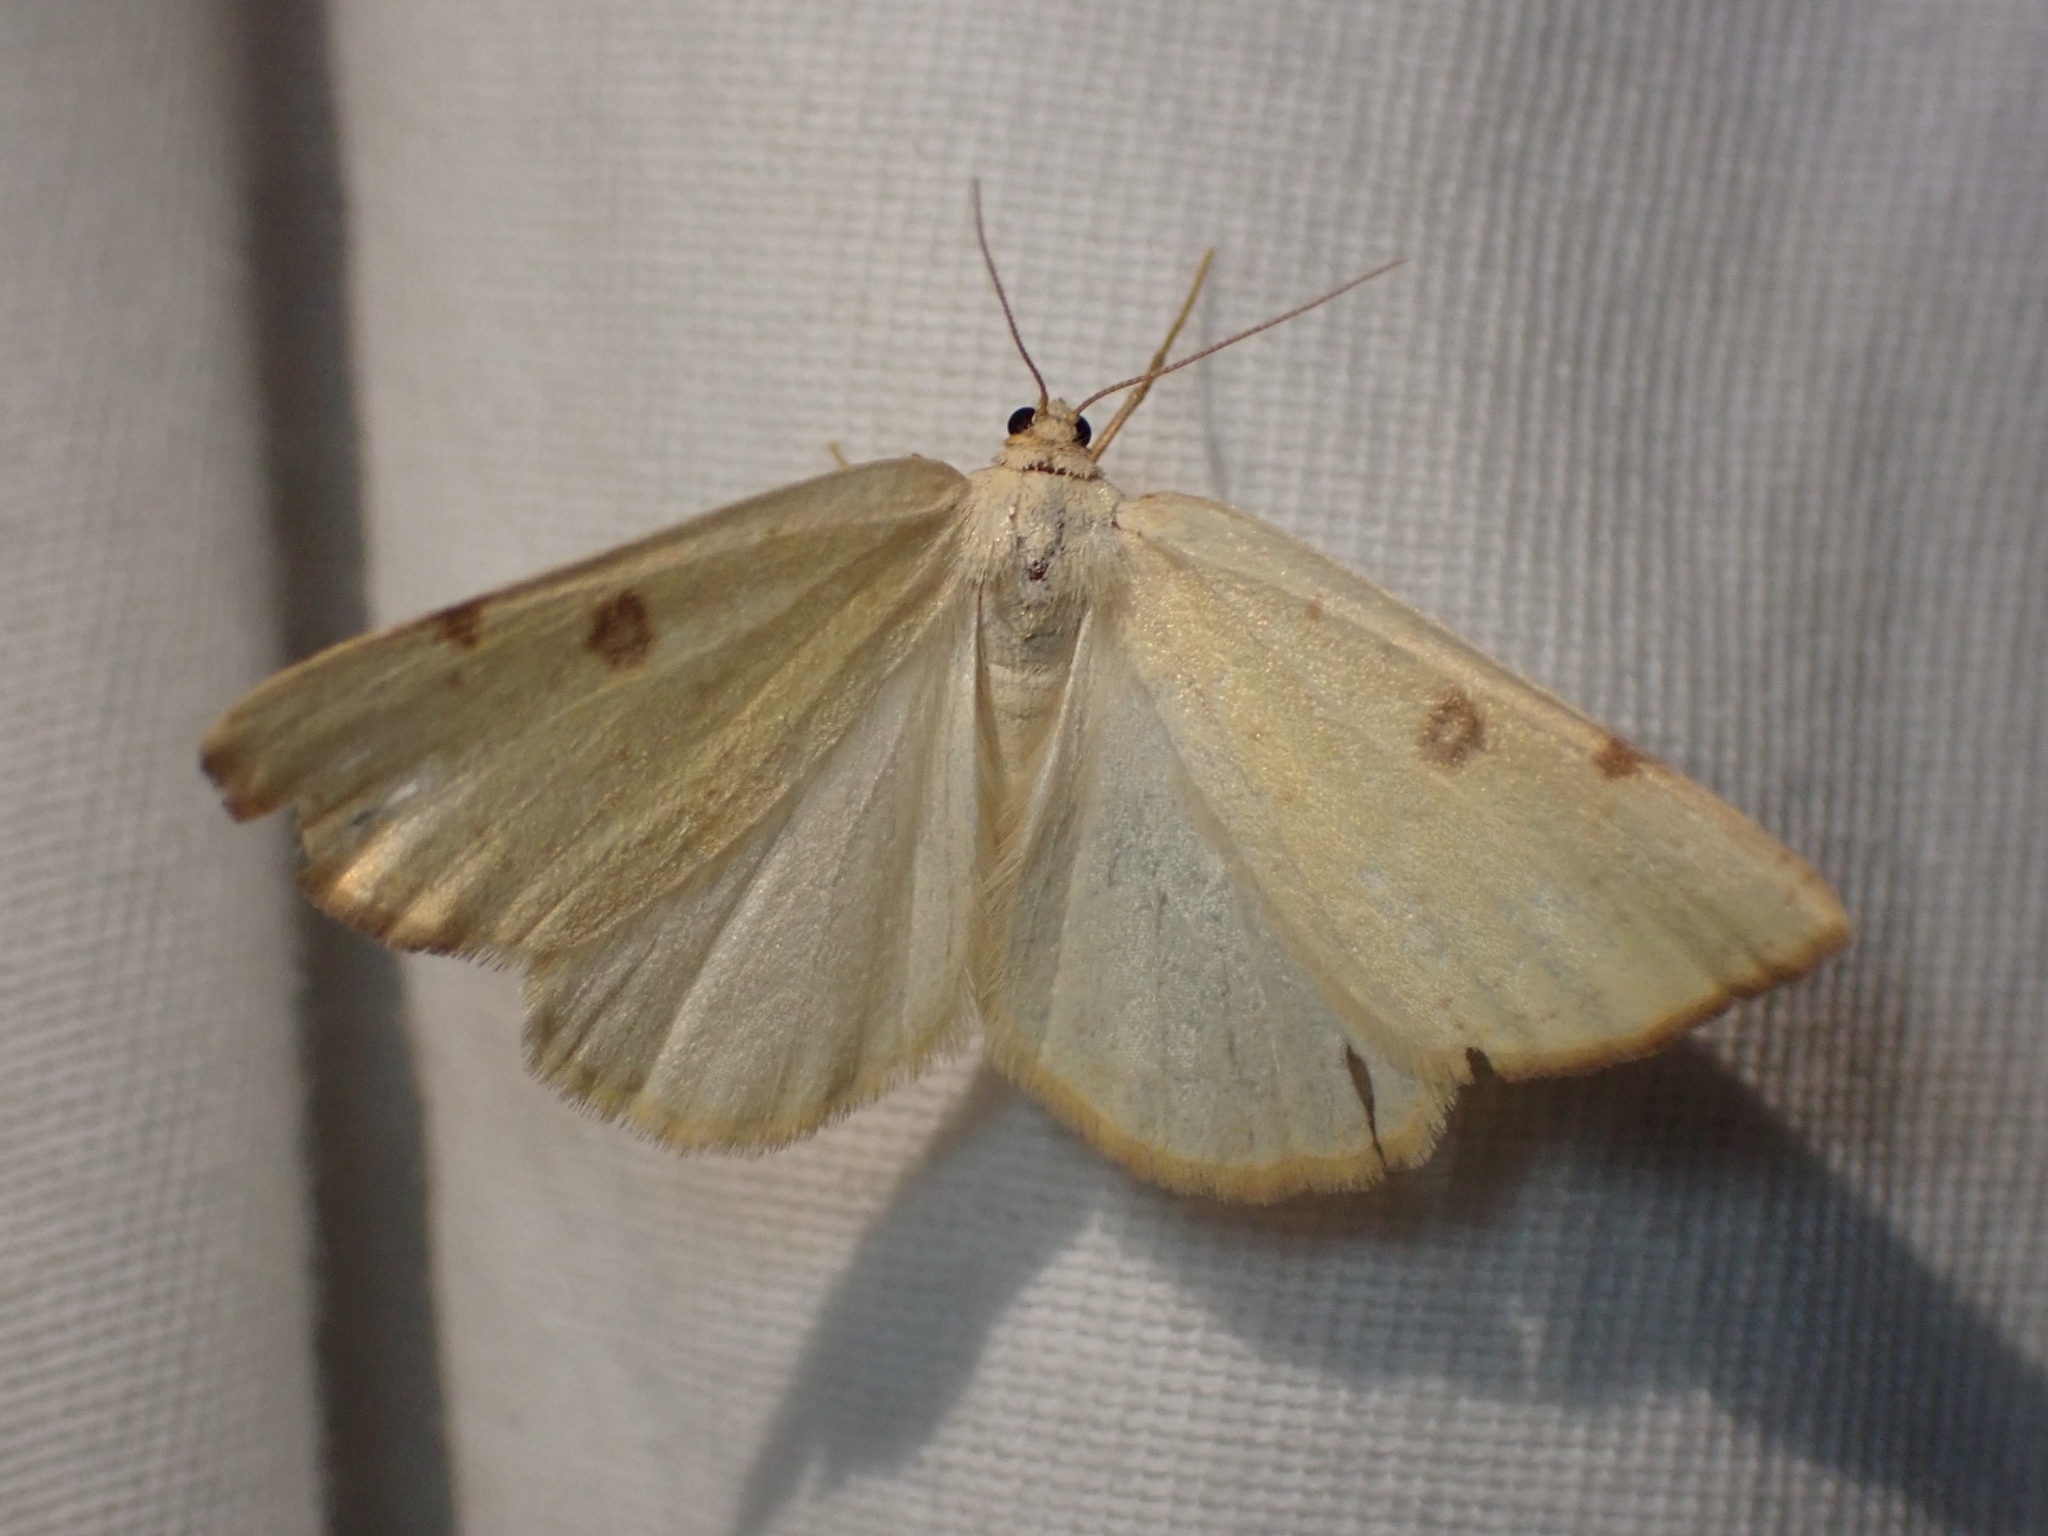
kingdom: Animalia
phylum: Arthropoda
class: Insecta
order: Lepidoptera
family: Geometridae
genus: Hesperumia
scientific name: Hesperumia sulphuraria
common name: Sulphur moth
